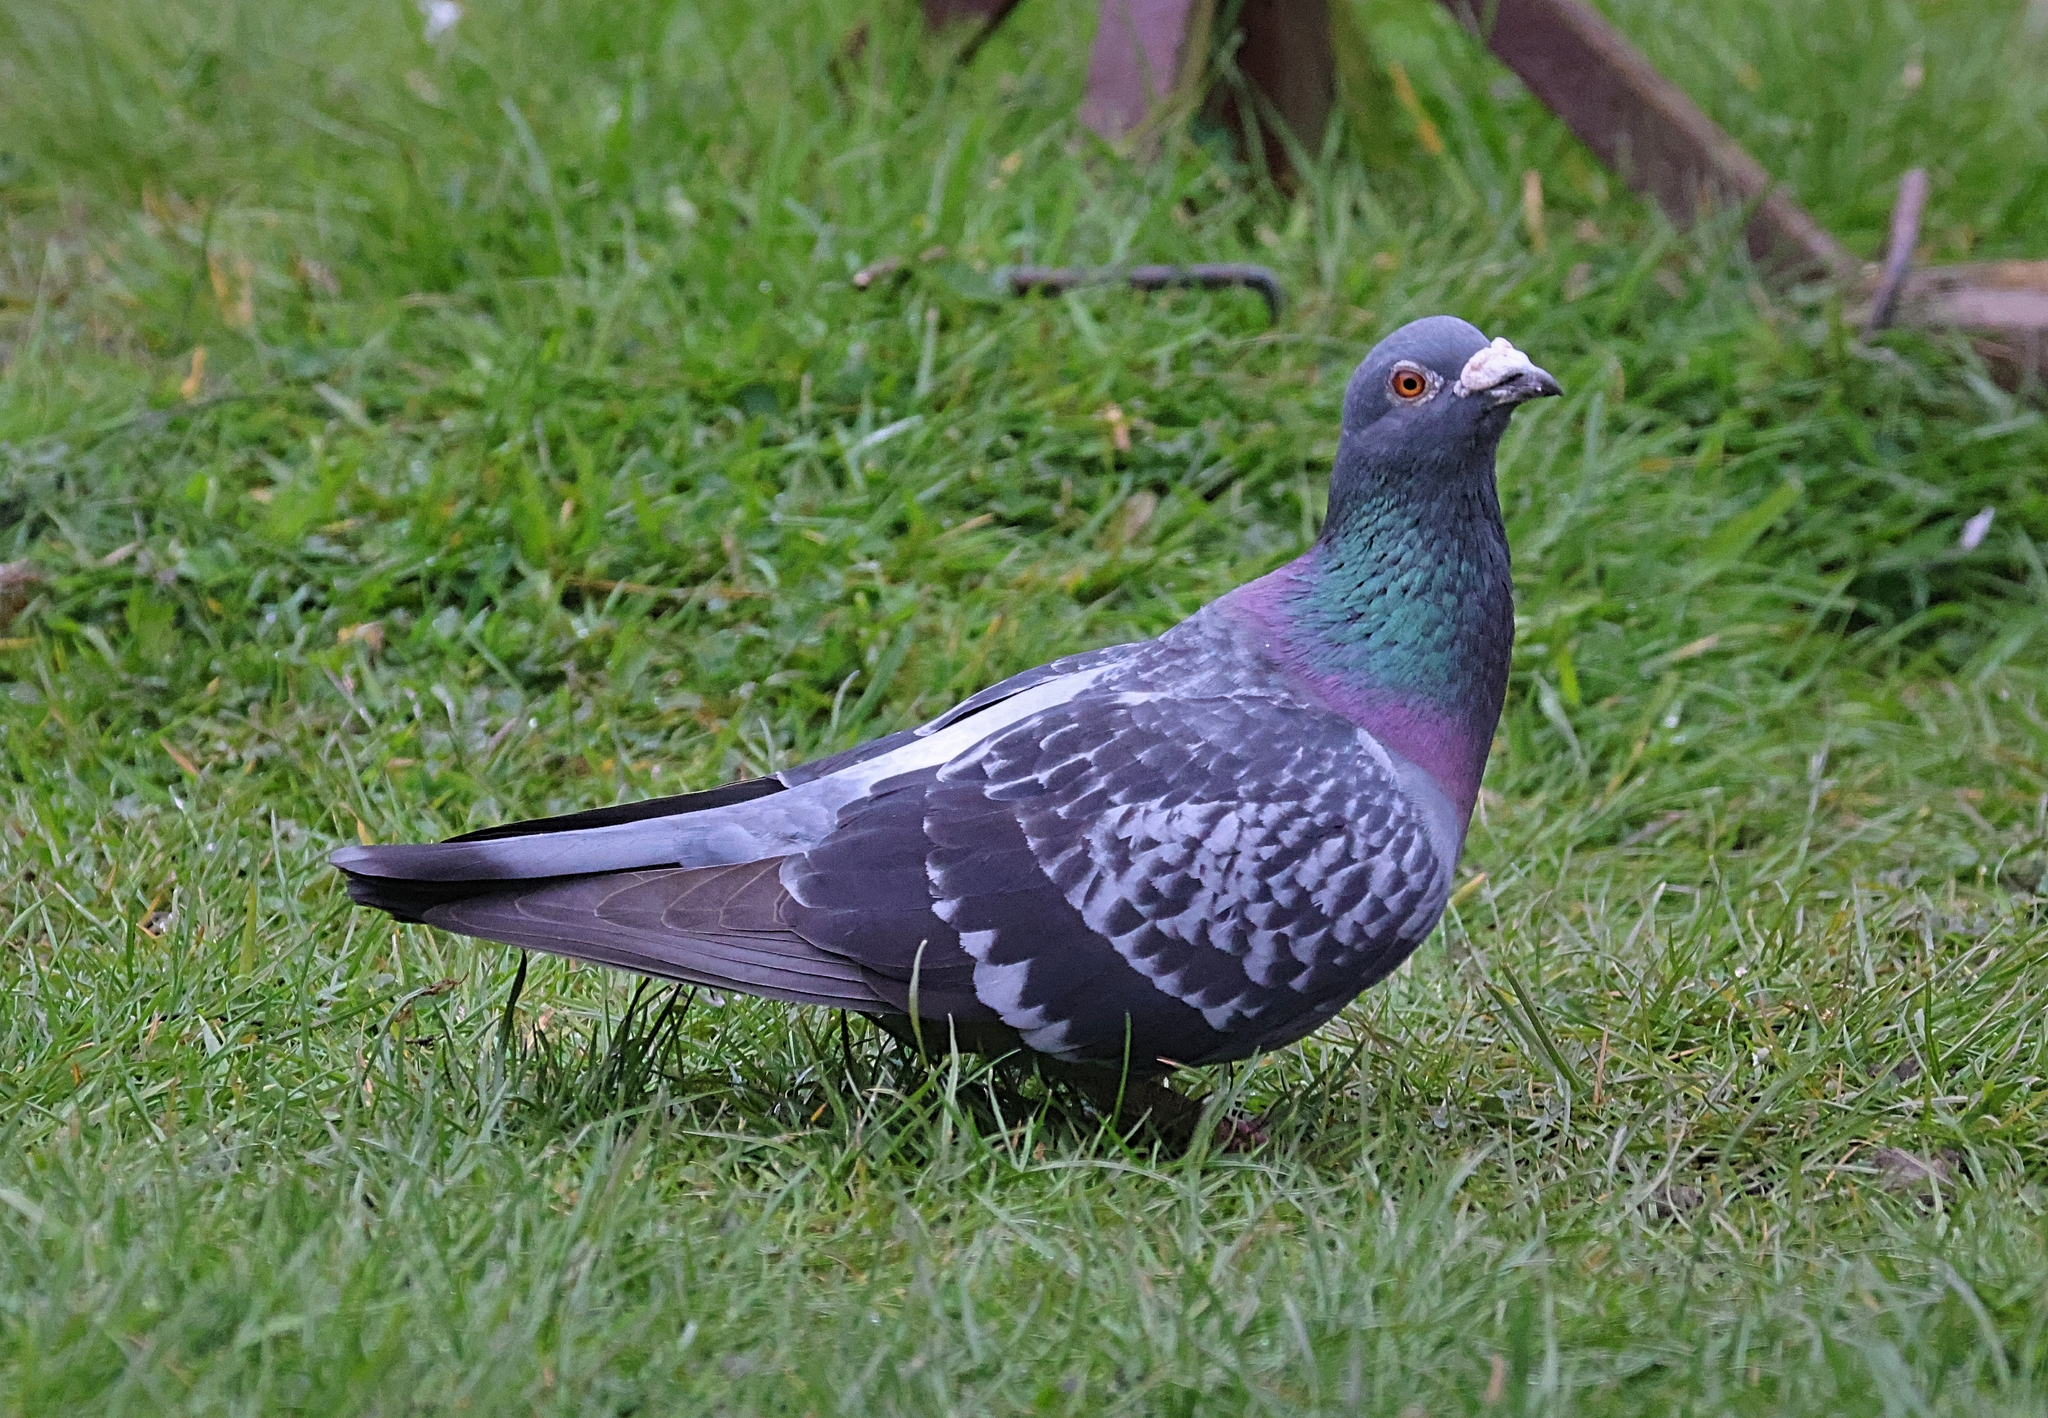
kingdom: Animalia
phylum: Chordata
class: Aves
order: Columbiformes
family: Columbidae
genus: Columba
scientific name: Columba livia
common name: Rock pigeon
